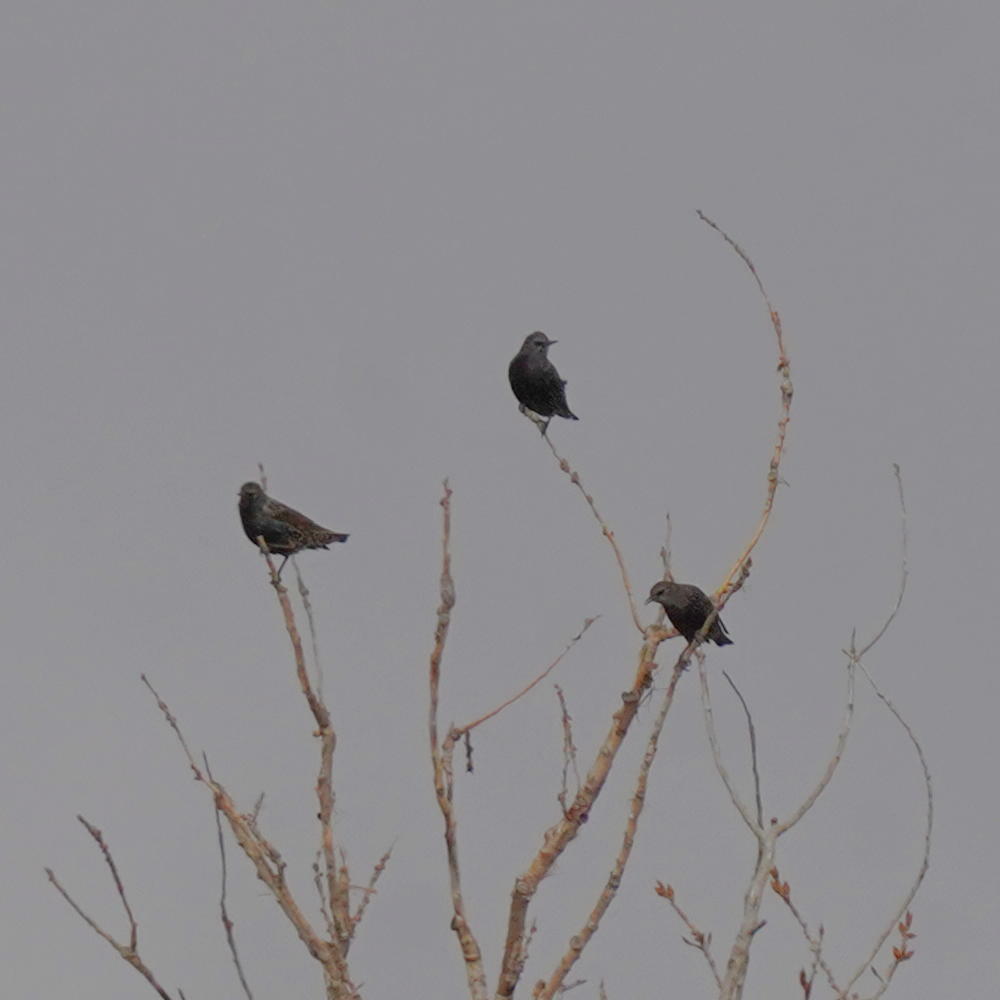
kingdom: Animalia
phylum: Chordata
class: Aves
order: Passeriformes
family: Sturnidae
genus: Sturnus
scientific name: Sturnus vulgaris
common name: Common starling
